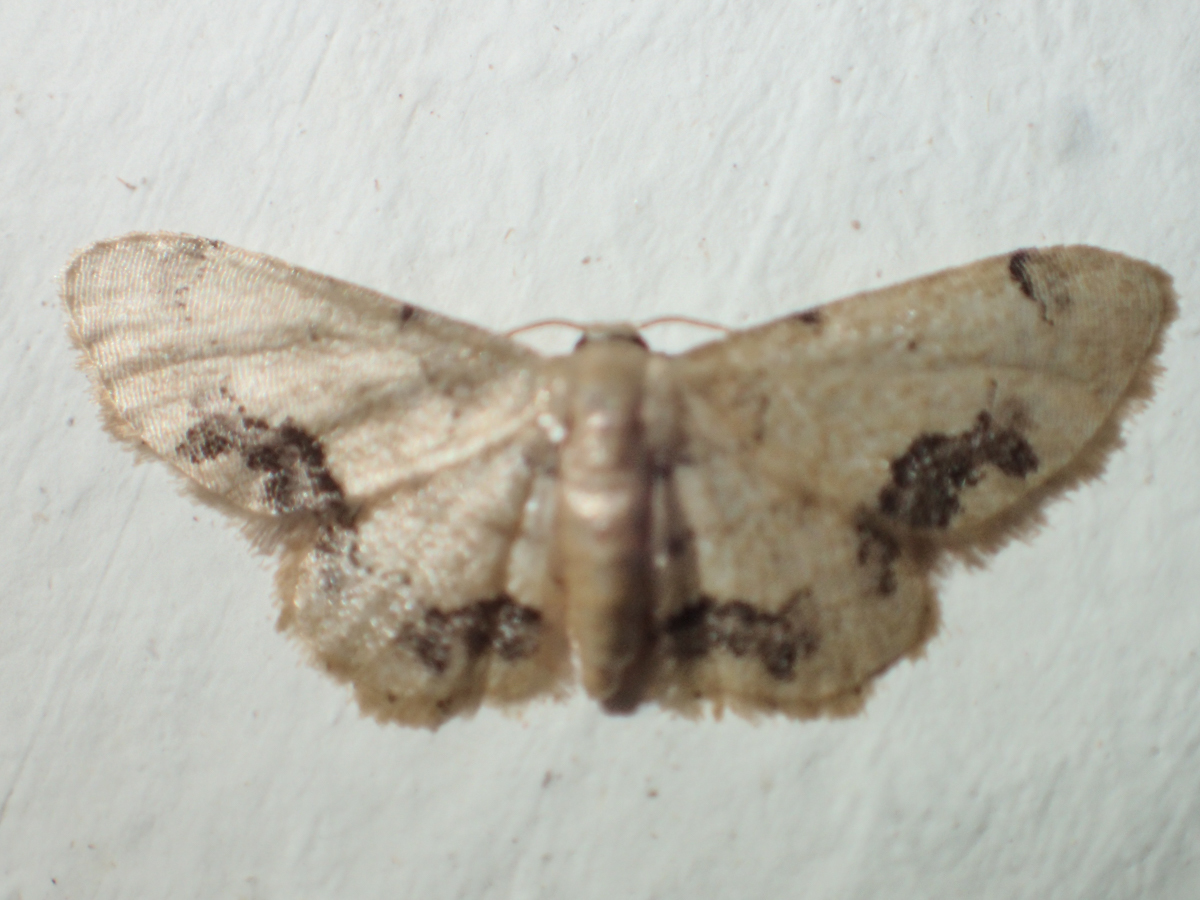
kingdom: Animalia
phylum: Arthropoda
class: Insecta
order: Lepidoptera
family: Geometridae
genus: Idaea
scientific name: Idaea chotaria
